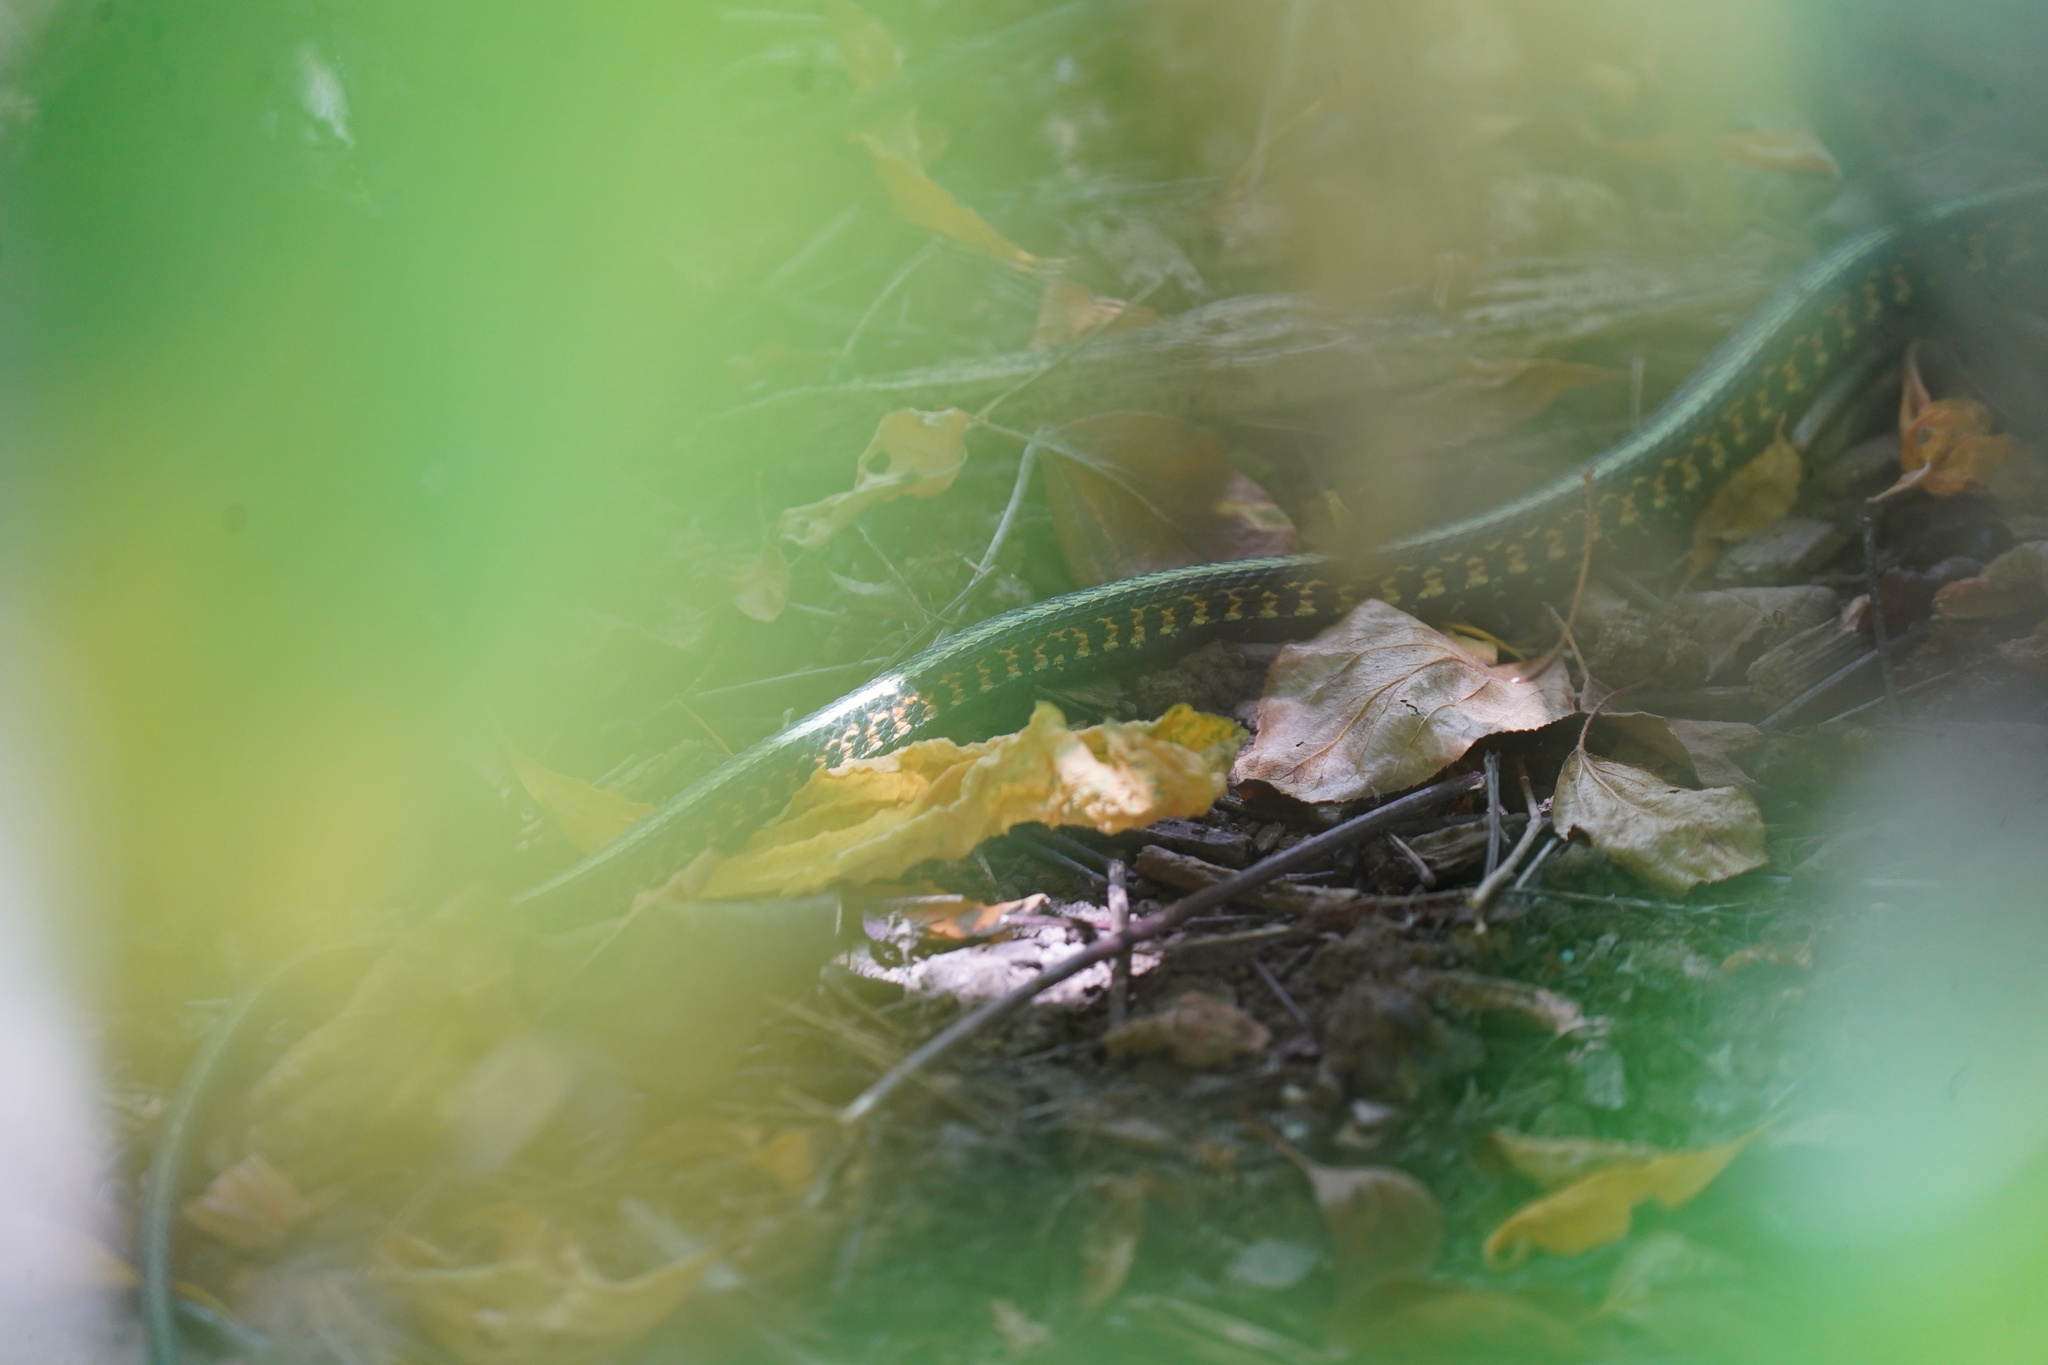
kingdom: Animalia
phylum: Chordata
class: Squamata
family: Colubridae
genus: Thamnophis
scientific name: Thamnophis sirtalis
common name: Common garter snake
